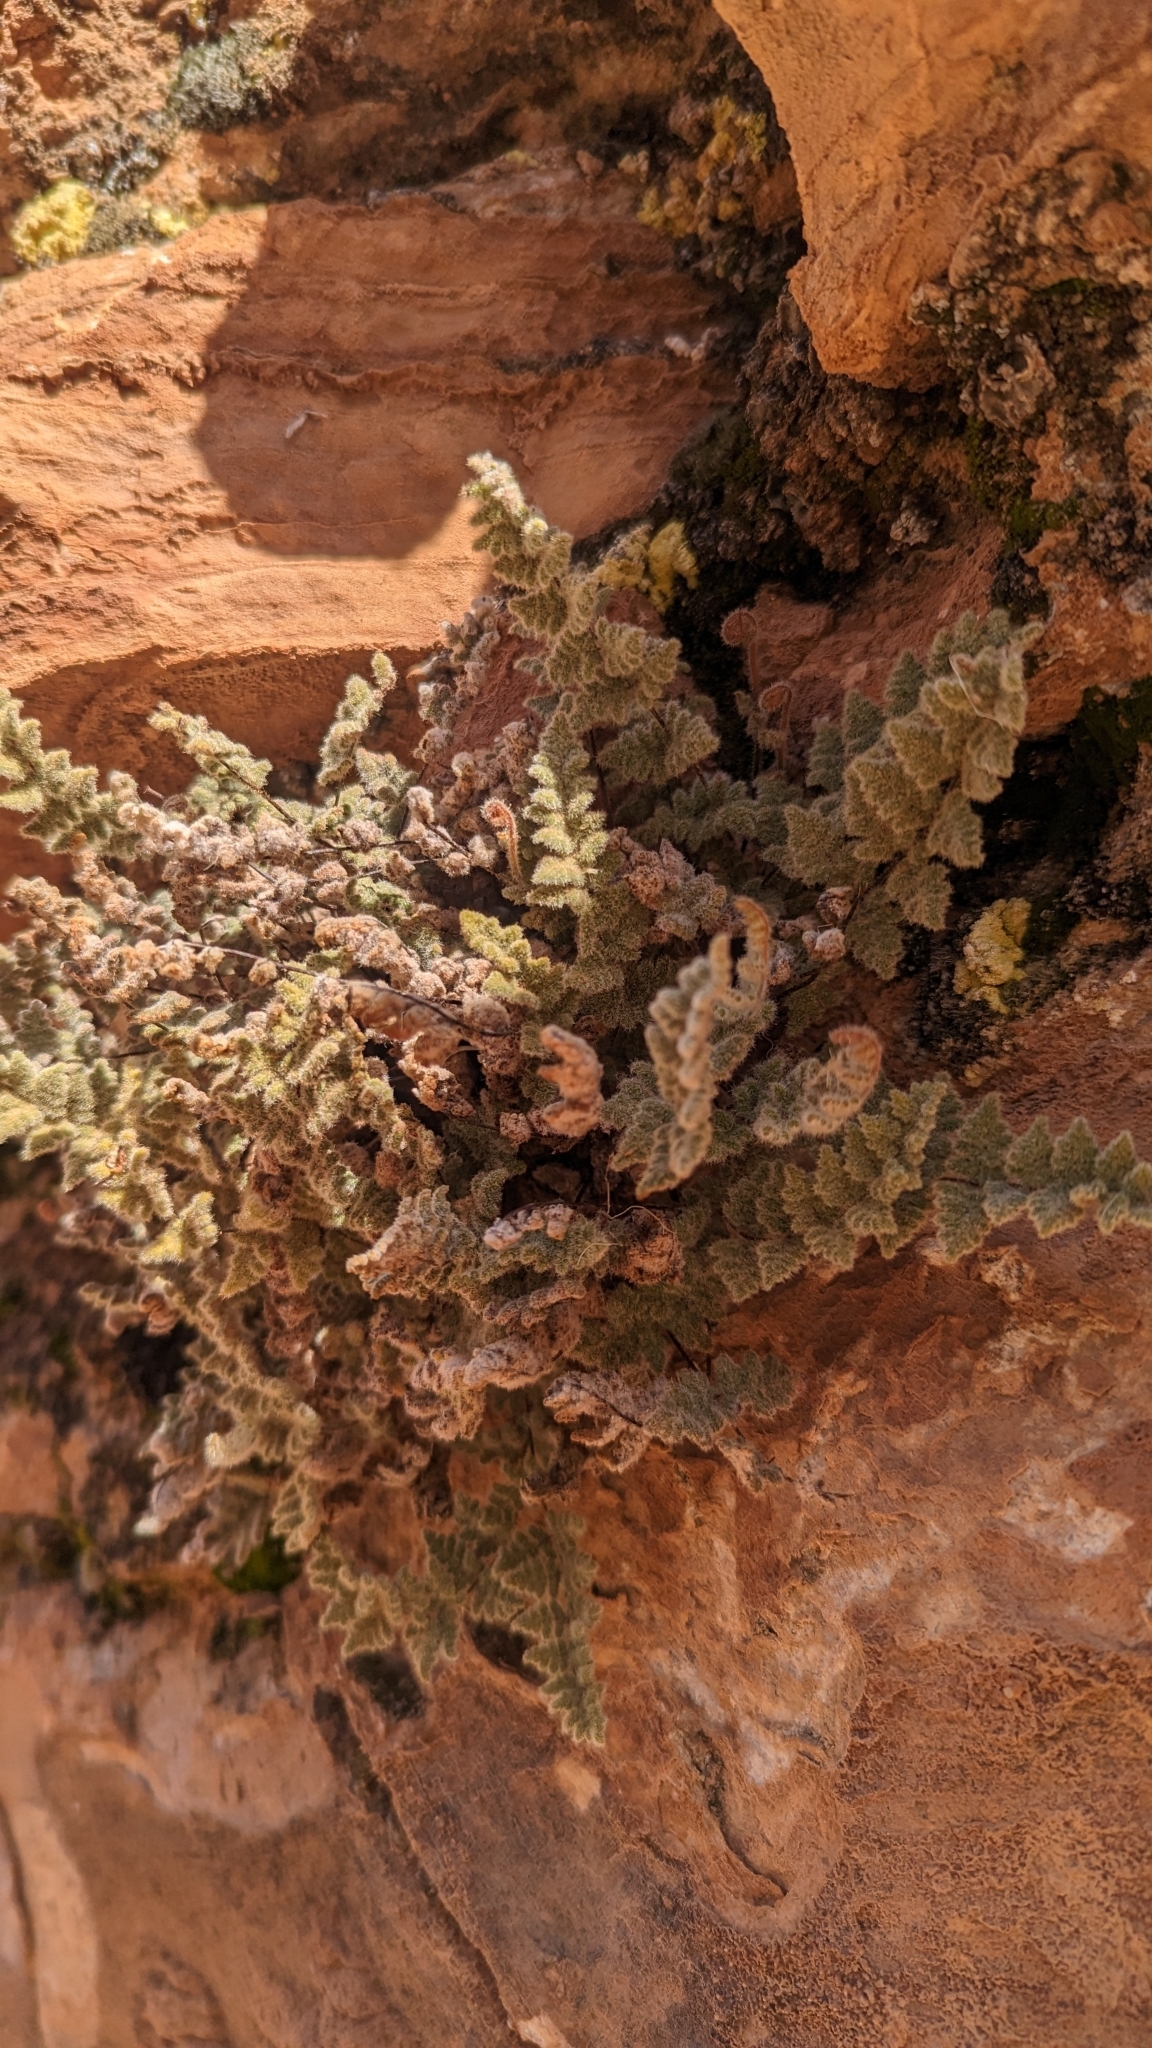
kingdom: Plantae
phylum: Tracheophyta
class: Polypodiopsida
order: Polypodiales
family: Pteridaceae
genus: Myriopteris
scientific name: Myriopteris parryi
